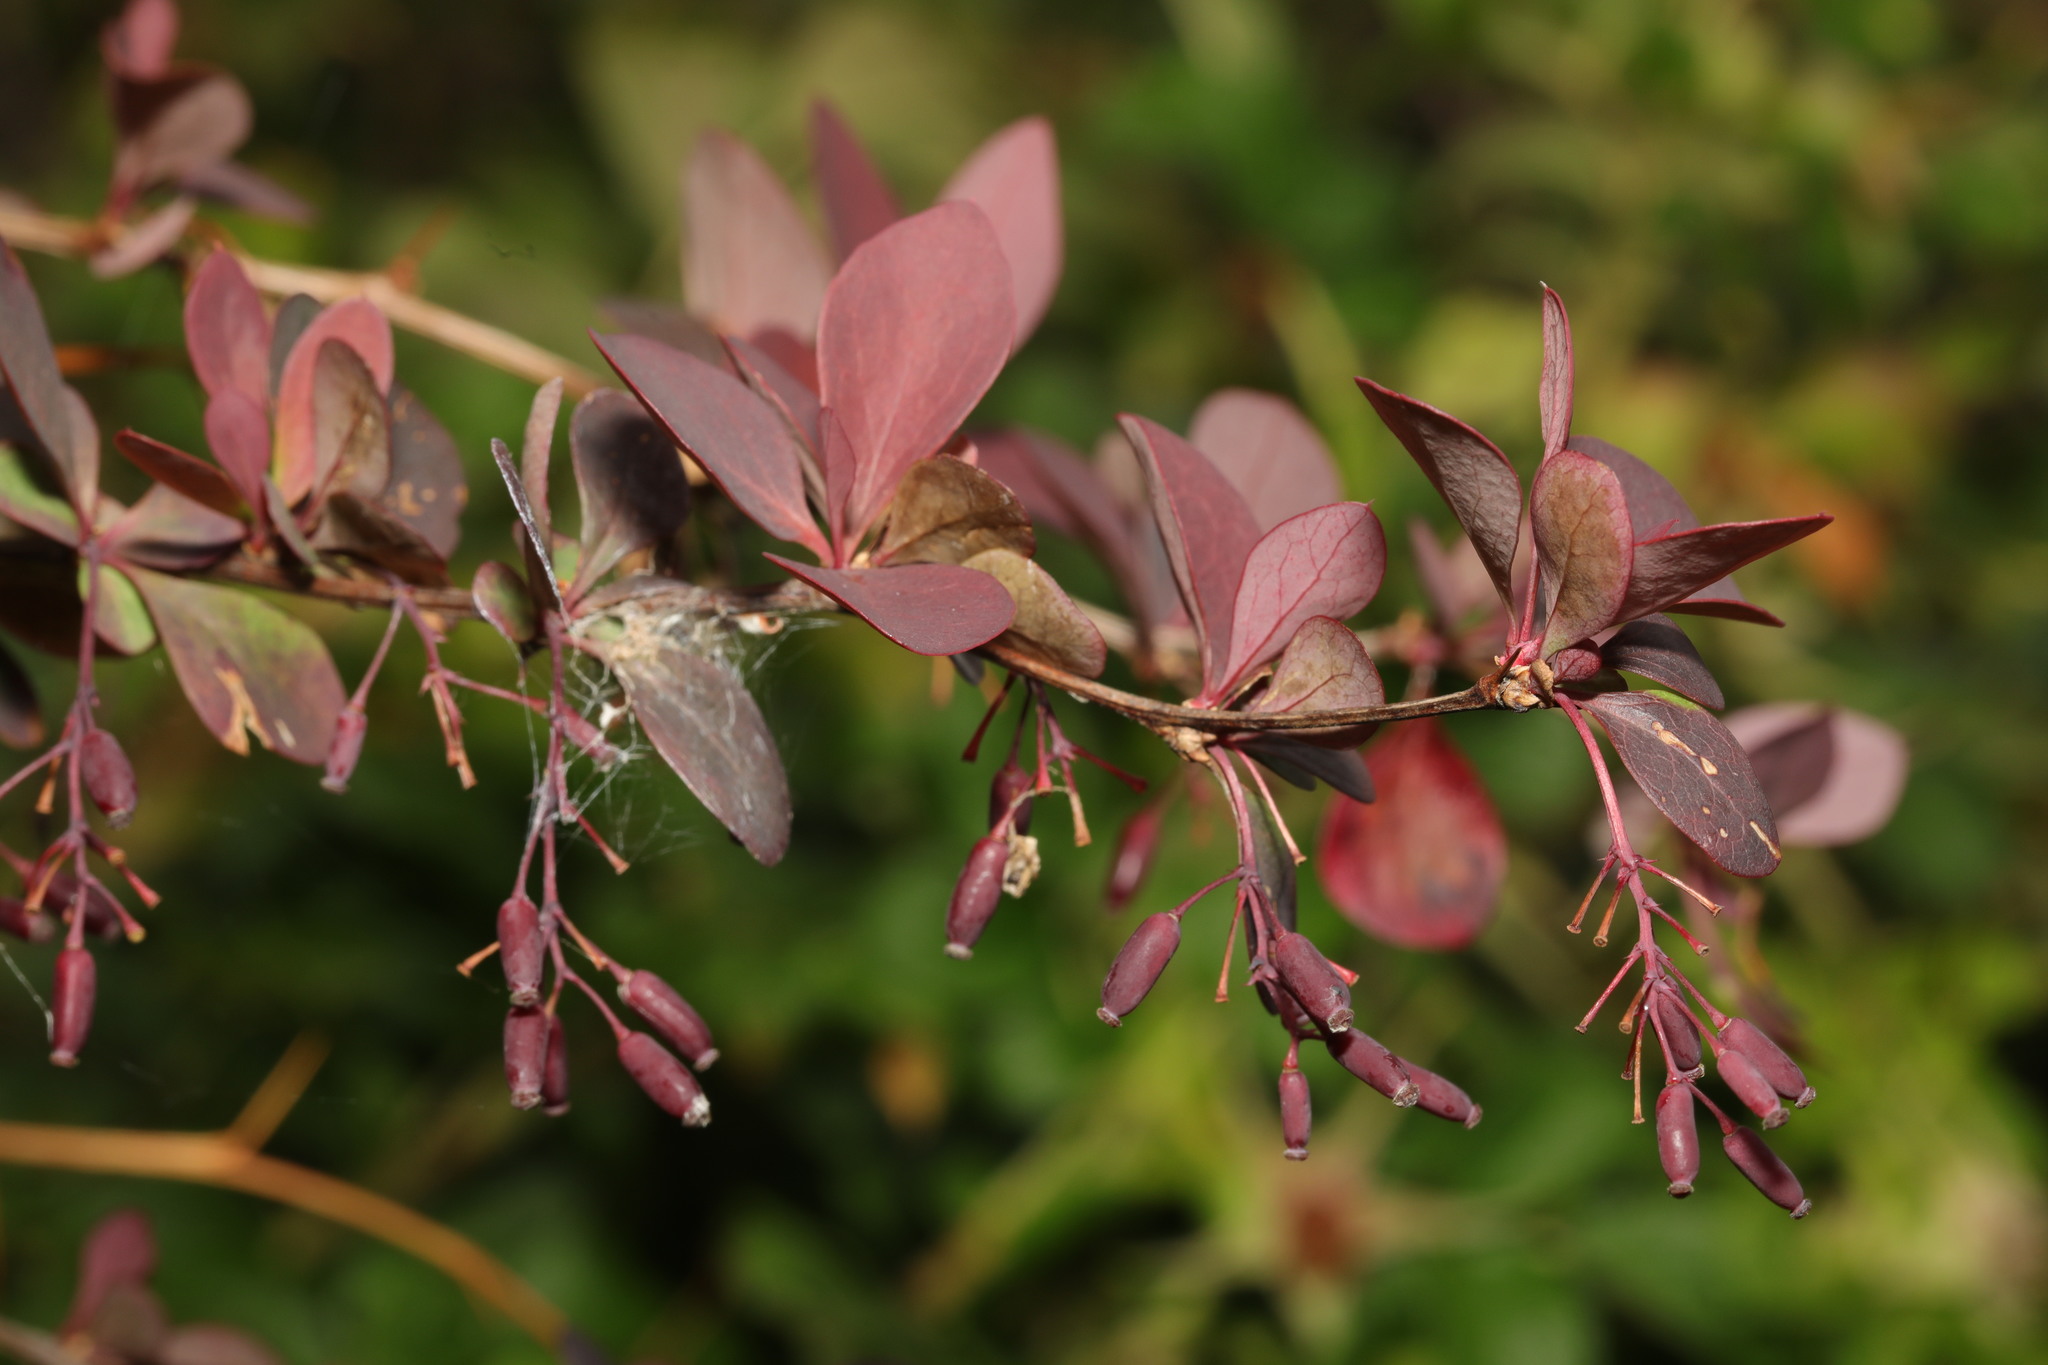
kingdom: Plantae
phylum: Tracheophyta
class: Magnoliopsida
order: Ranunculales
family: Berberidaceae
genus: Berberis
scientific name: Berberis thunbergii
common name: Japanese barberry
